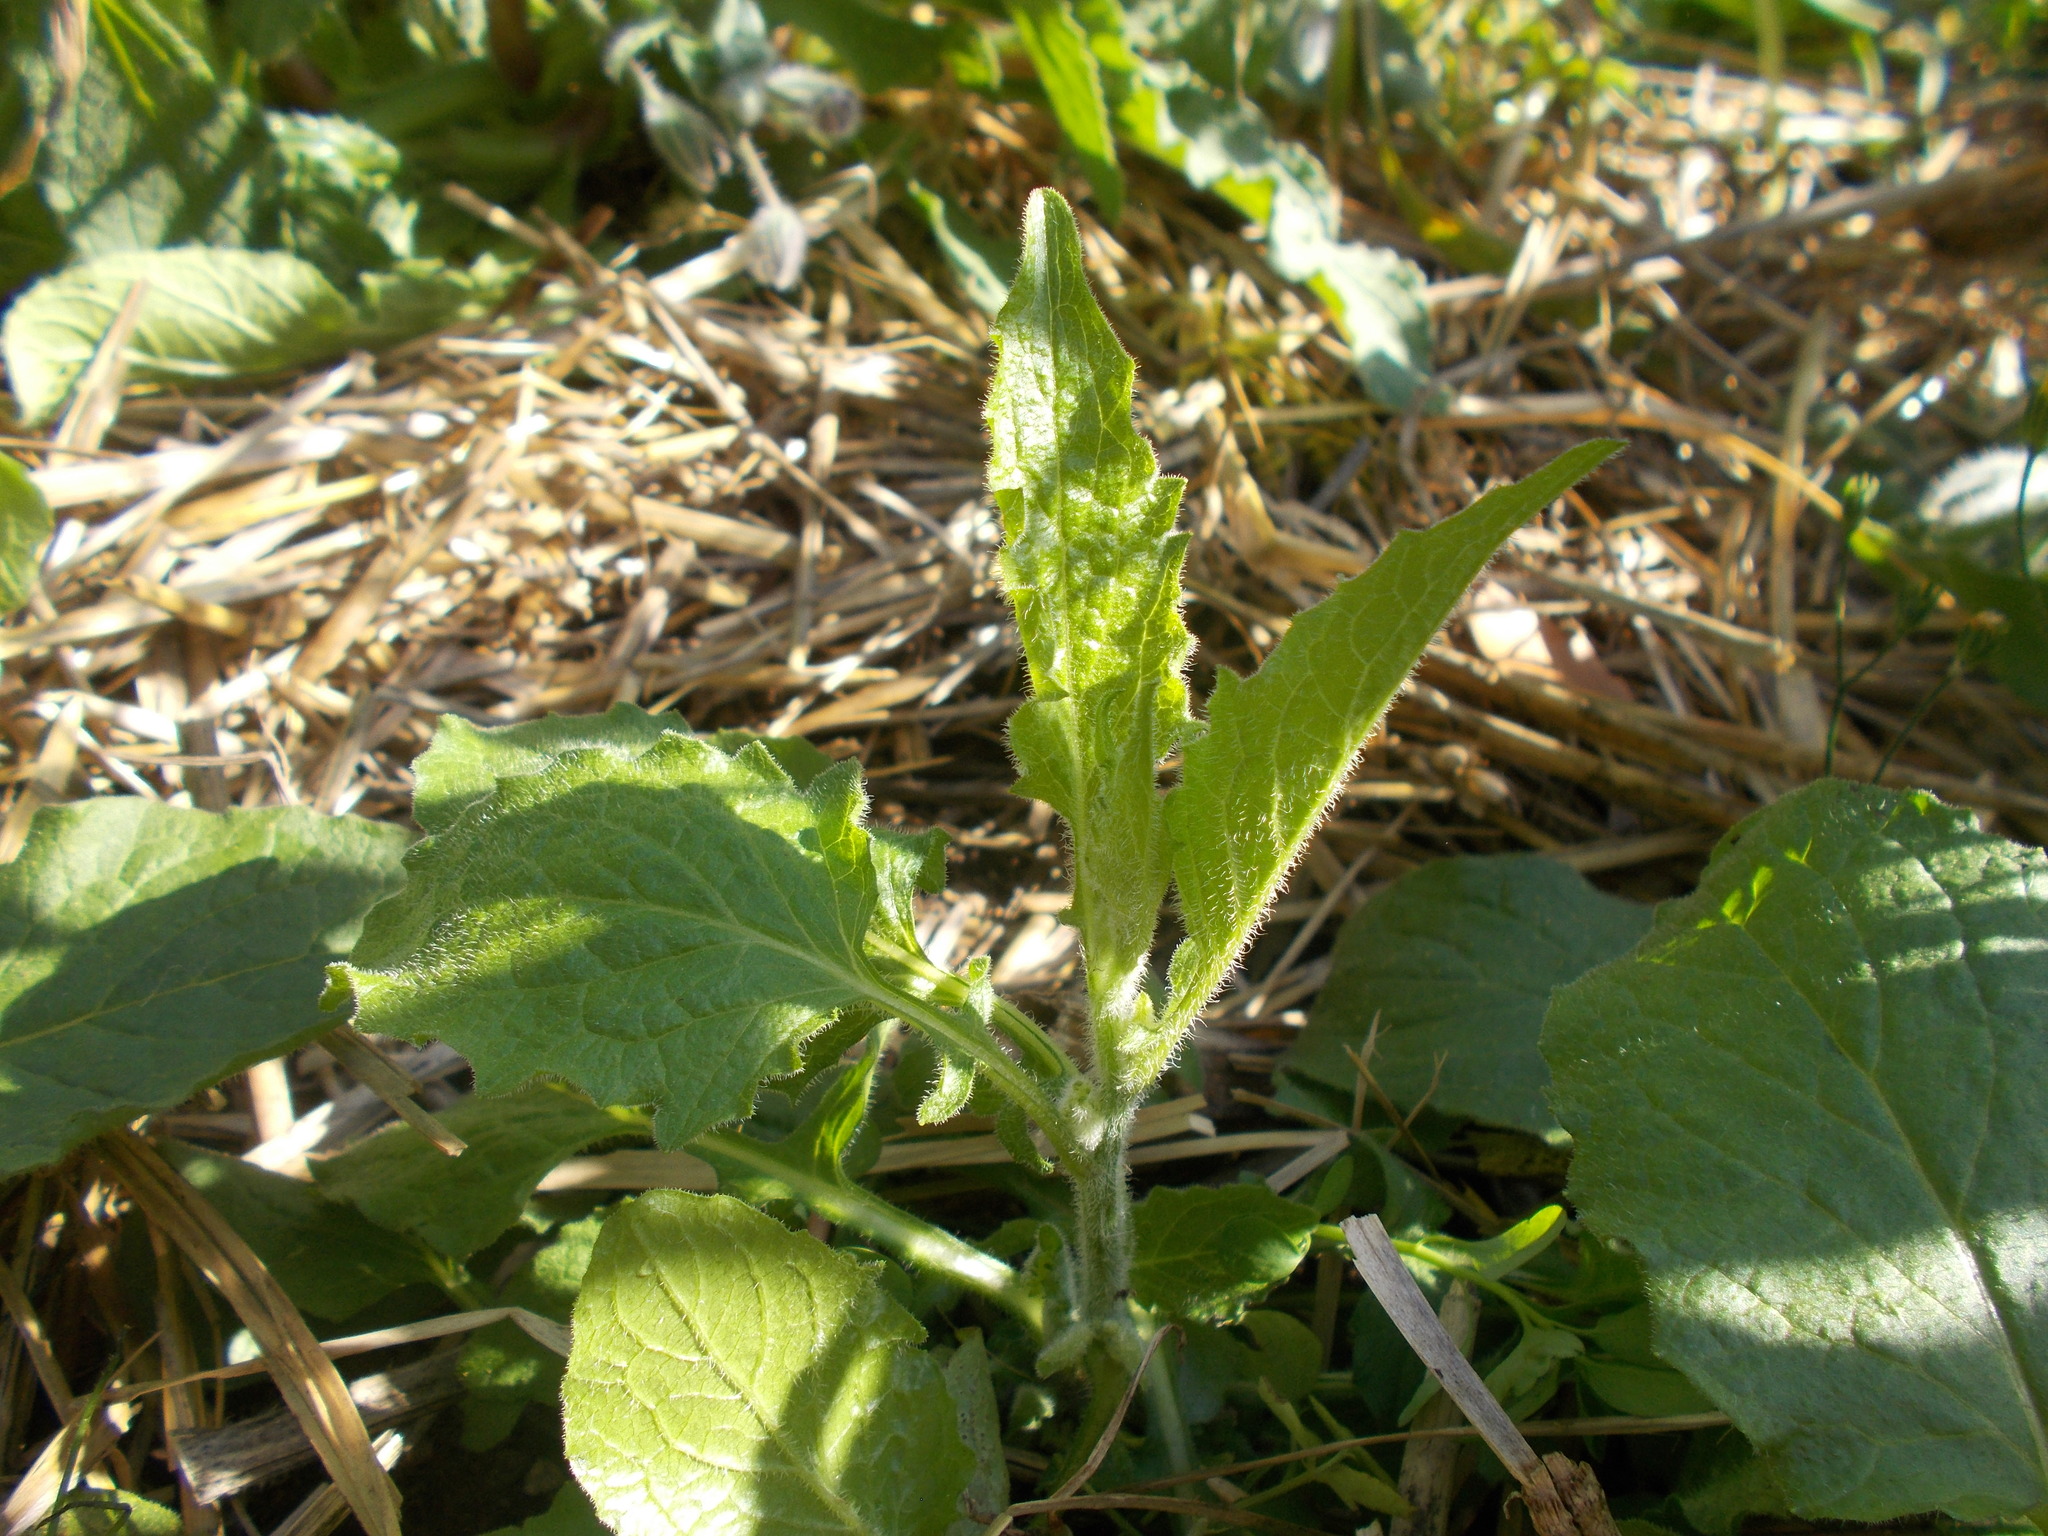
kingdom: Plantae
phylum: Tracheophyta
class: Magnoliopsida
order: Asterales
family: Asteraceae
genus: Lapsana
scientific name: Lapsana communis
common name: Nipplewort
